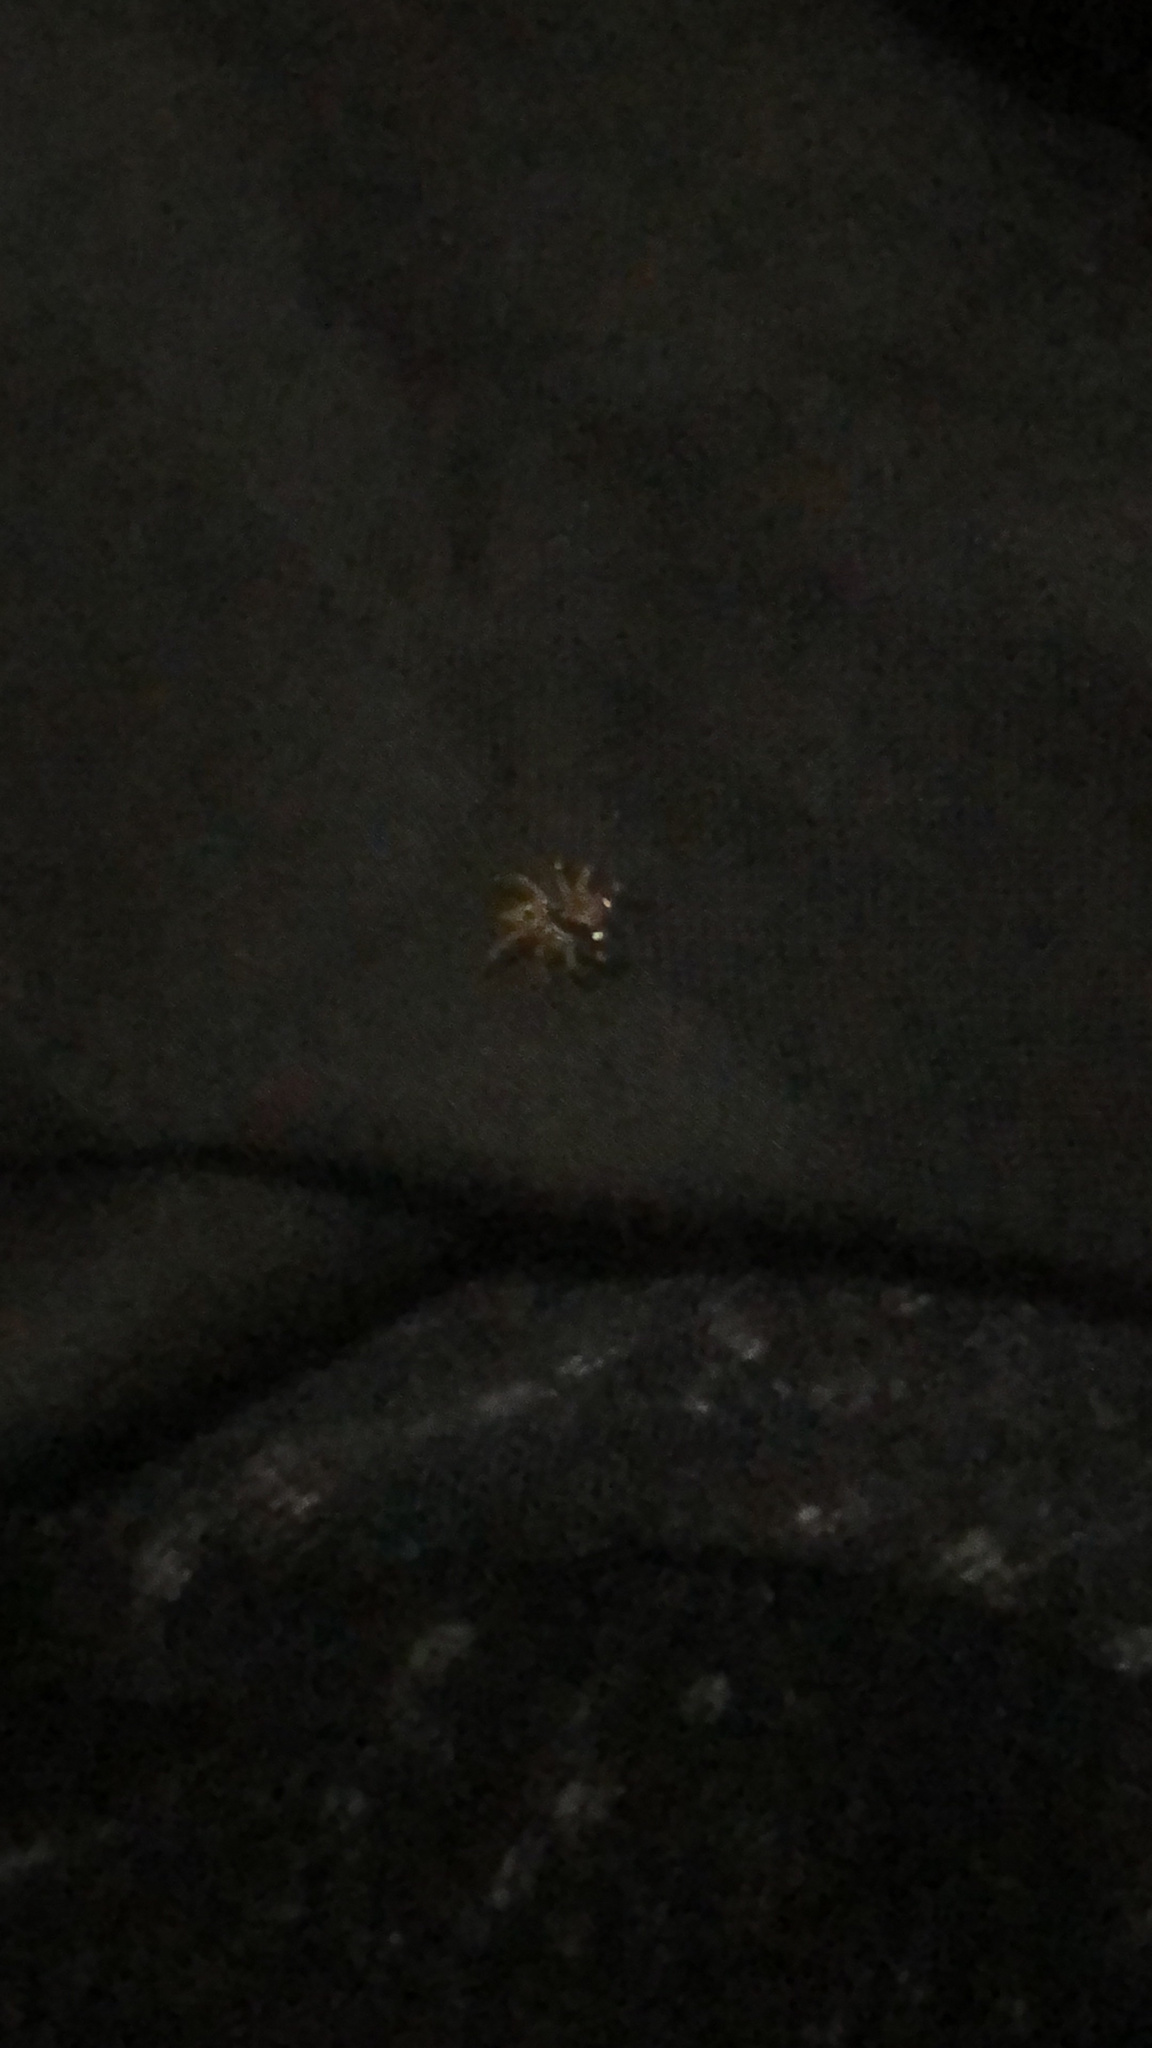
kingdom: Animalia
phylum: Arthropoda
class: Arachnida
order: Araneae
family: Salticidae
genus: Anasaitis
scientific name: Anasaitis canosa
